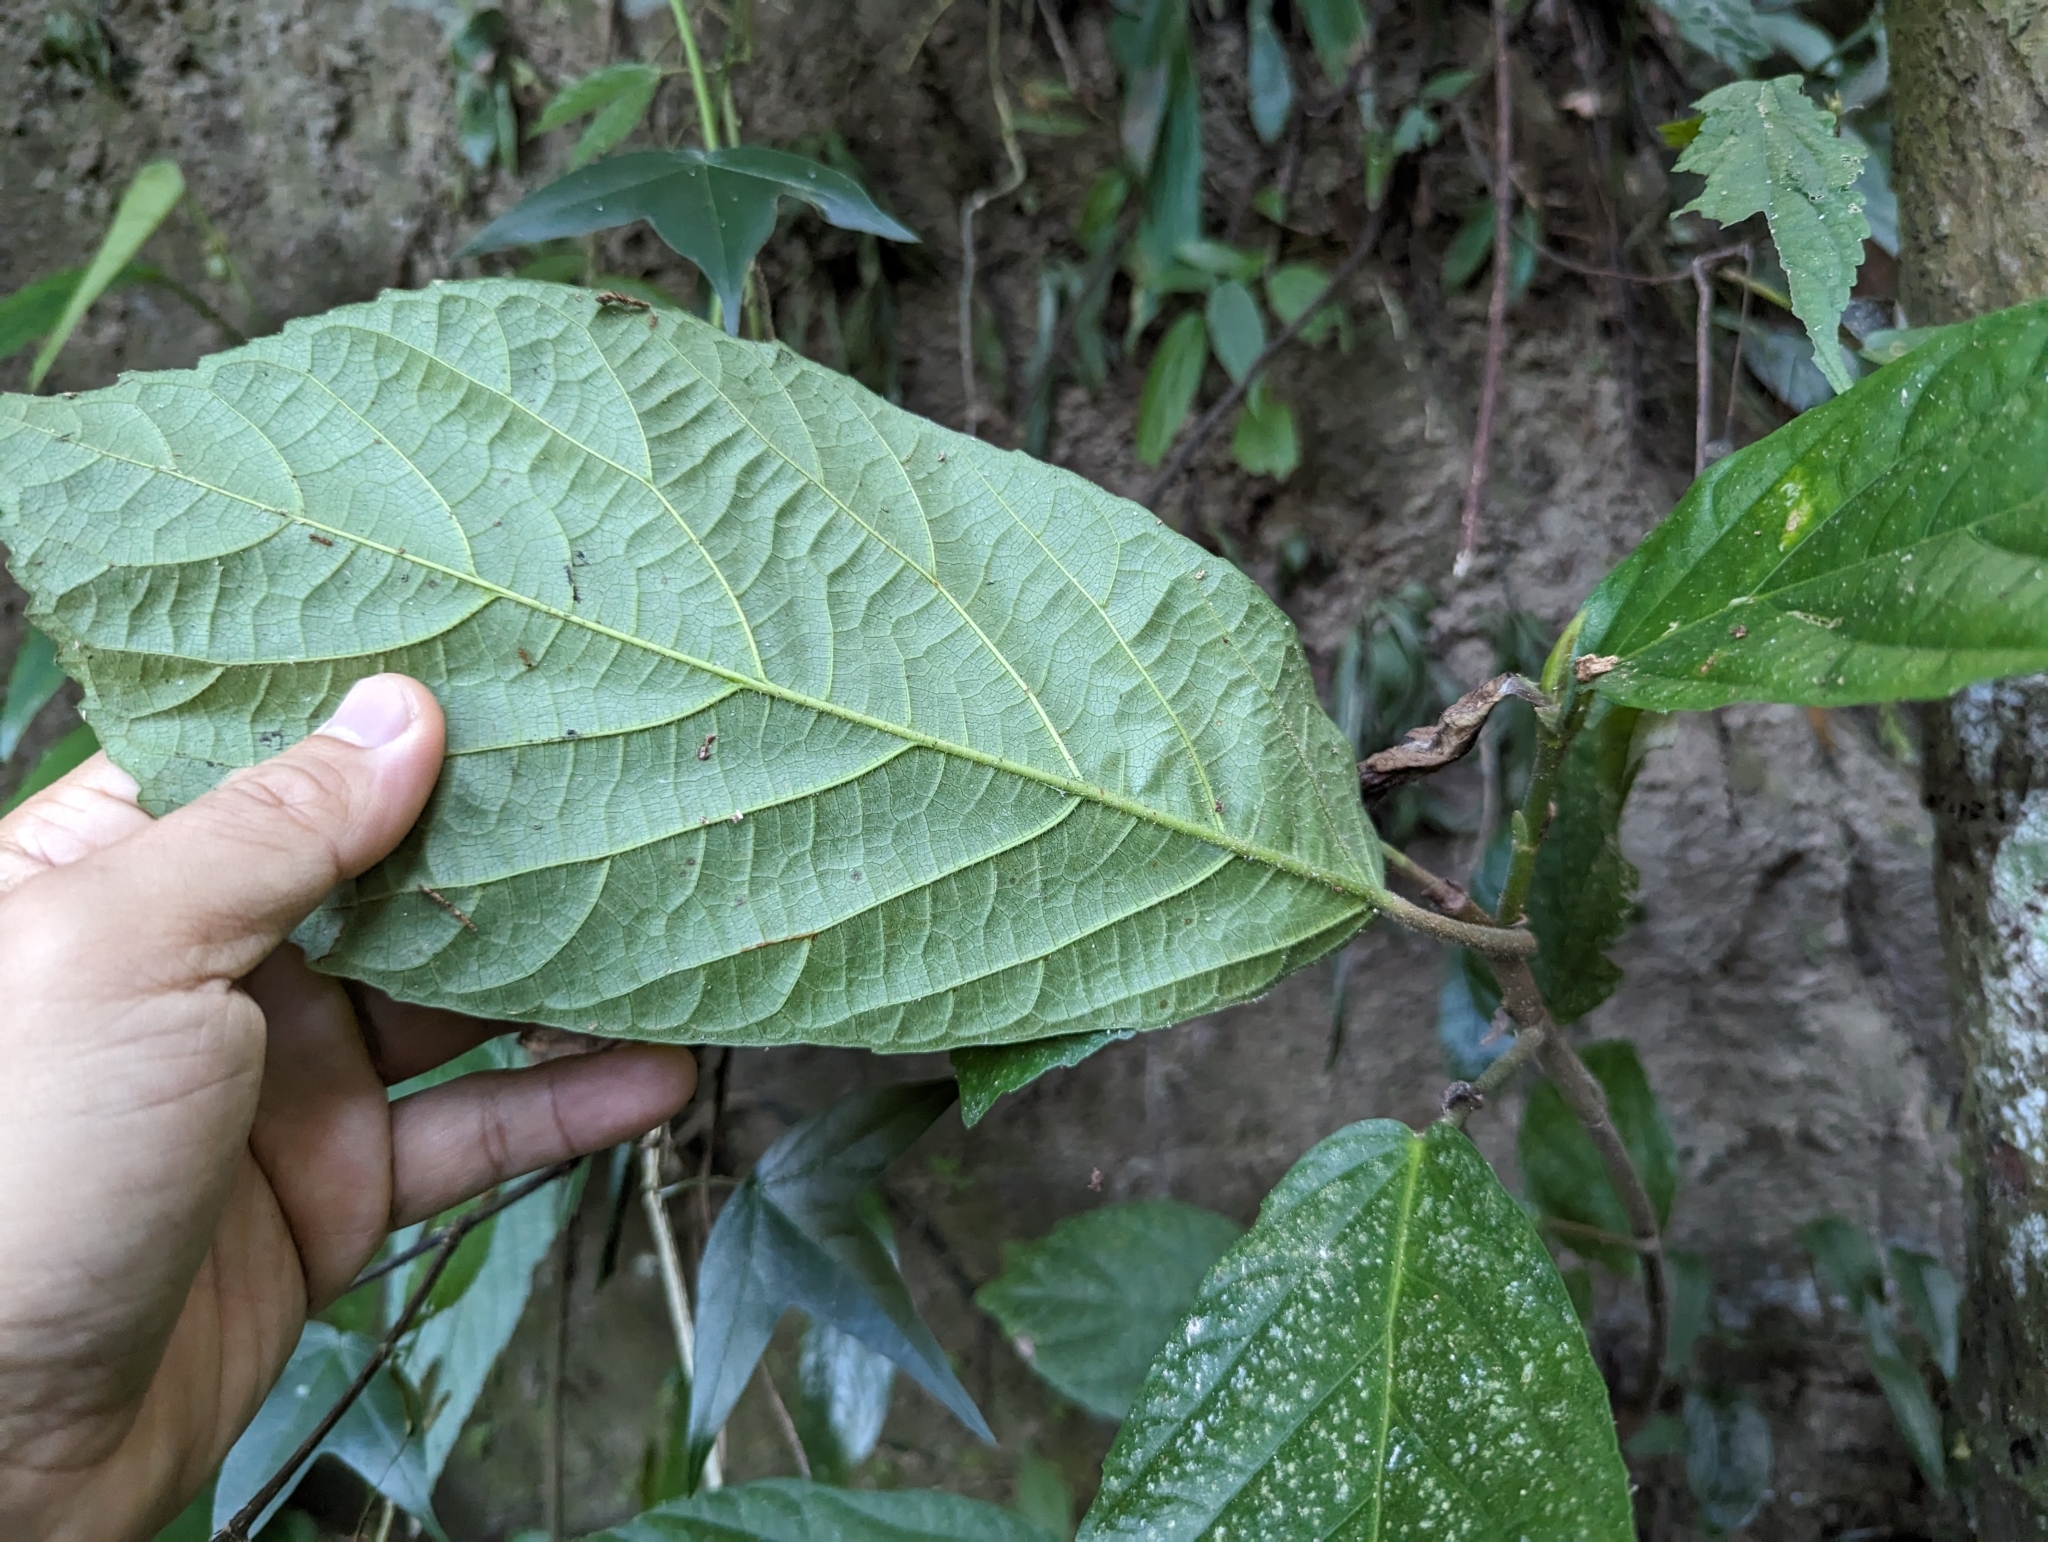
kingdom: Plantae
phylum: Tracheophyta
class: Magnoliopsida
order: Rosales
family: Moraceae
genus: Ficus
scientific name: Ficus benguetensis
